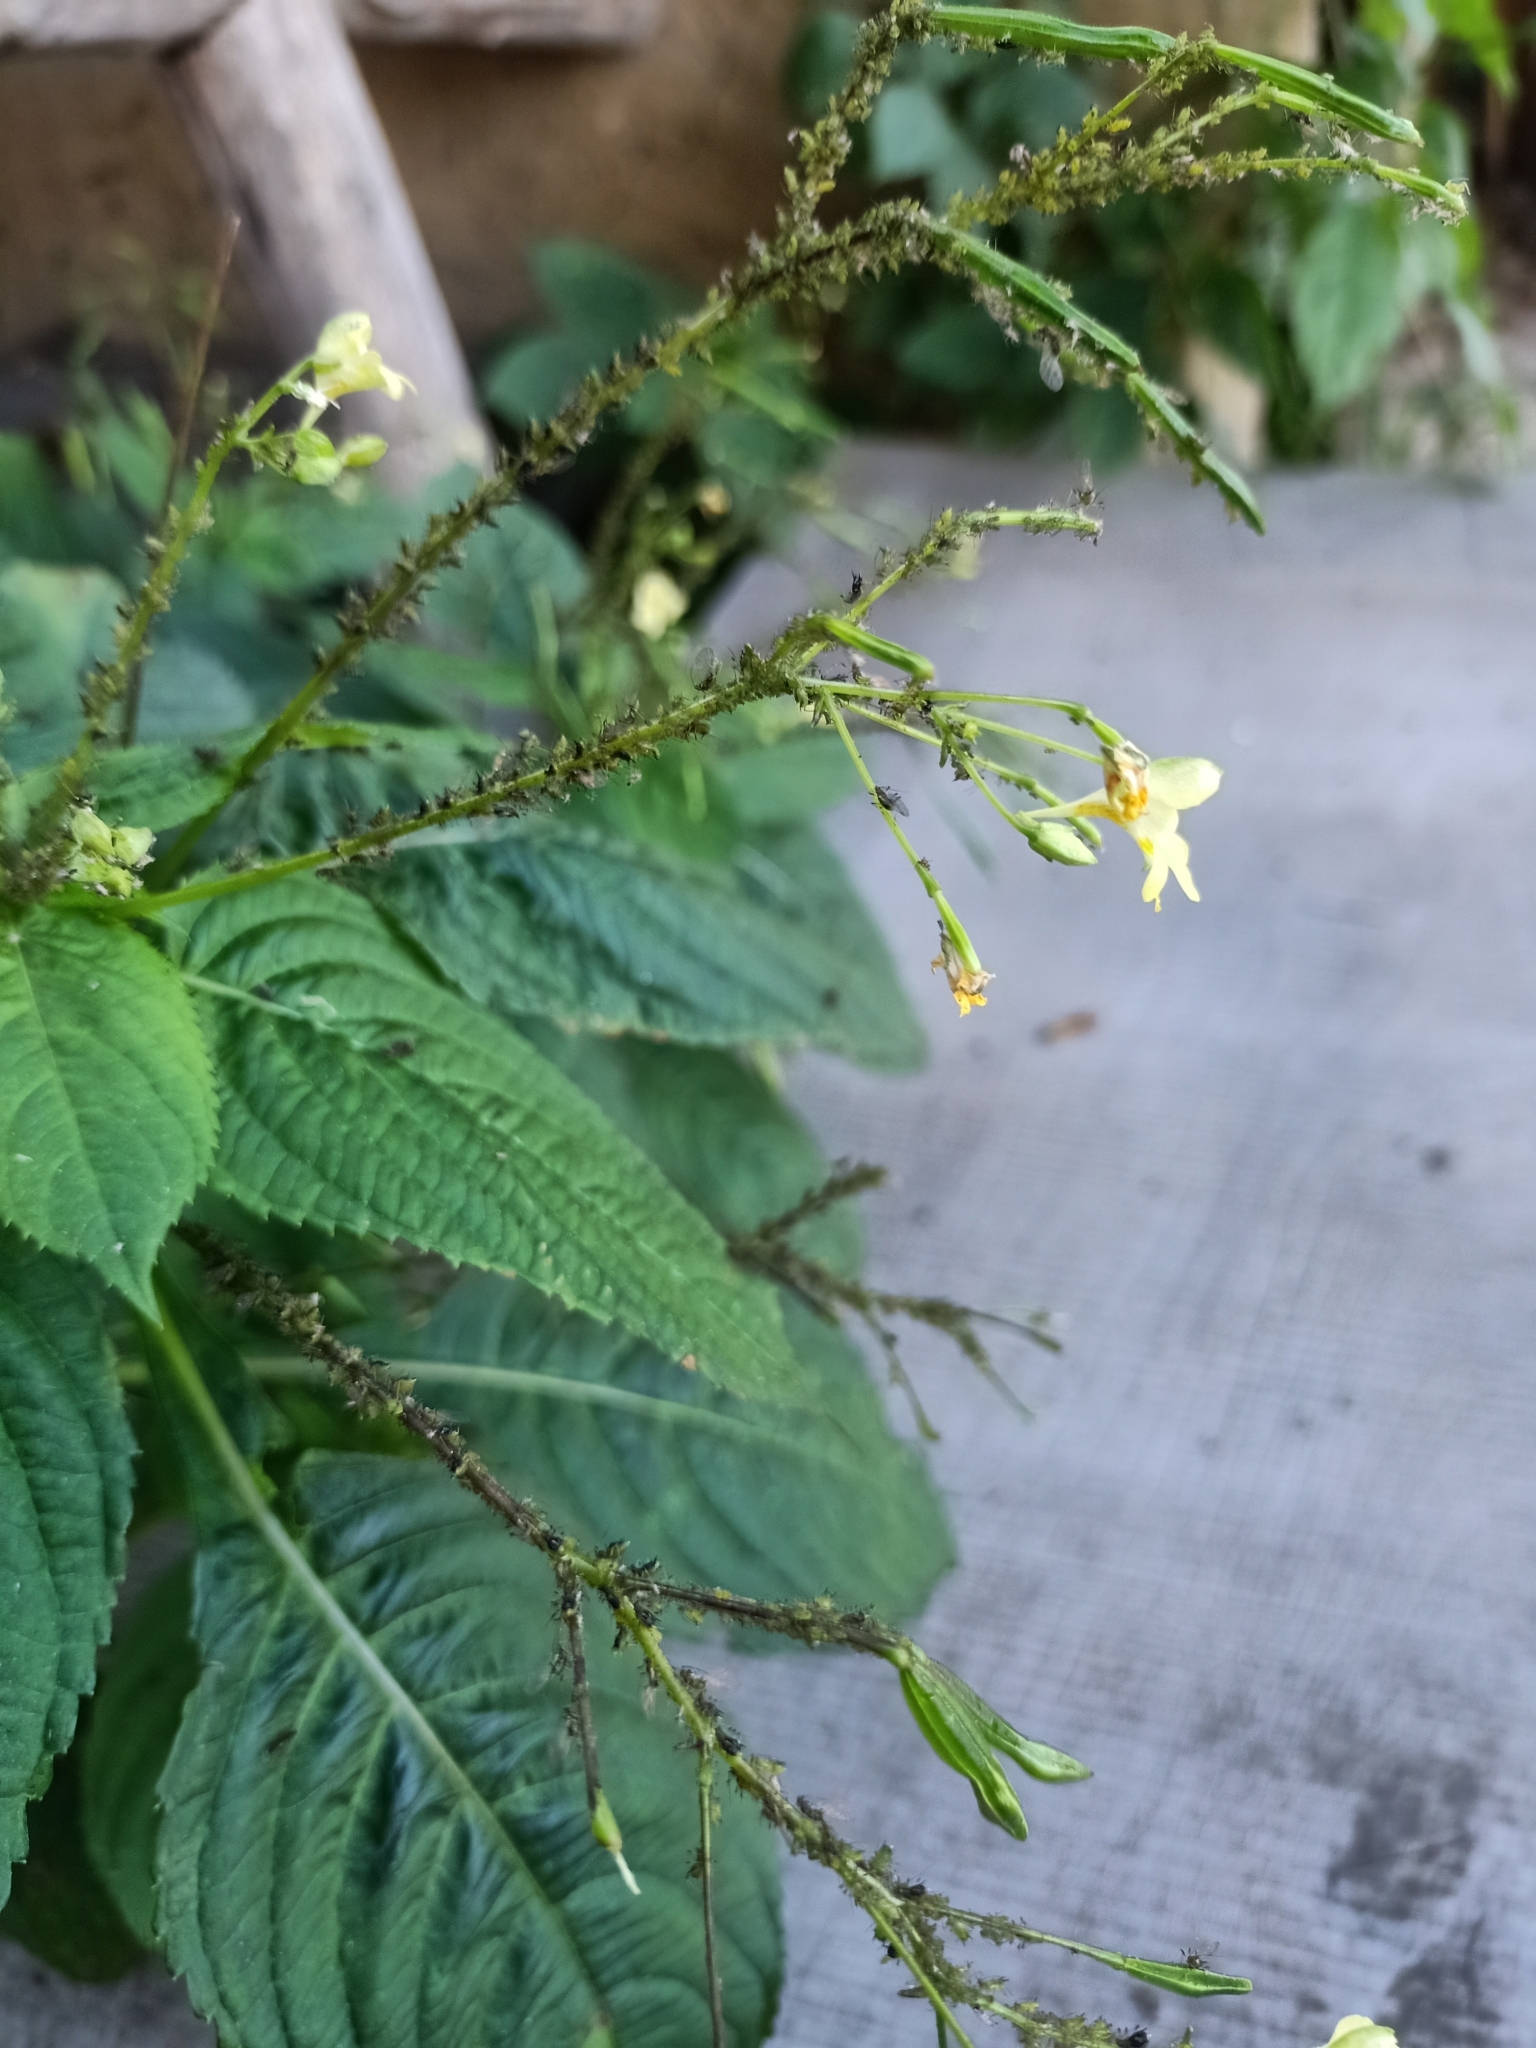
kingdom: Plantae
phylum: Tracheophyta
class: Magnoliopsida
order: Ericales
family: Balsaminaceae
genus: Impatiens
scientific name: Impatiens parviflora
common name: Small balsam
